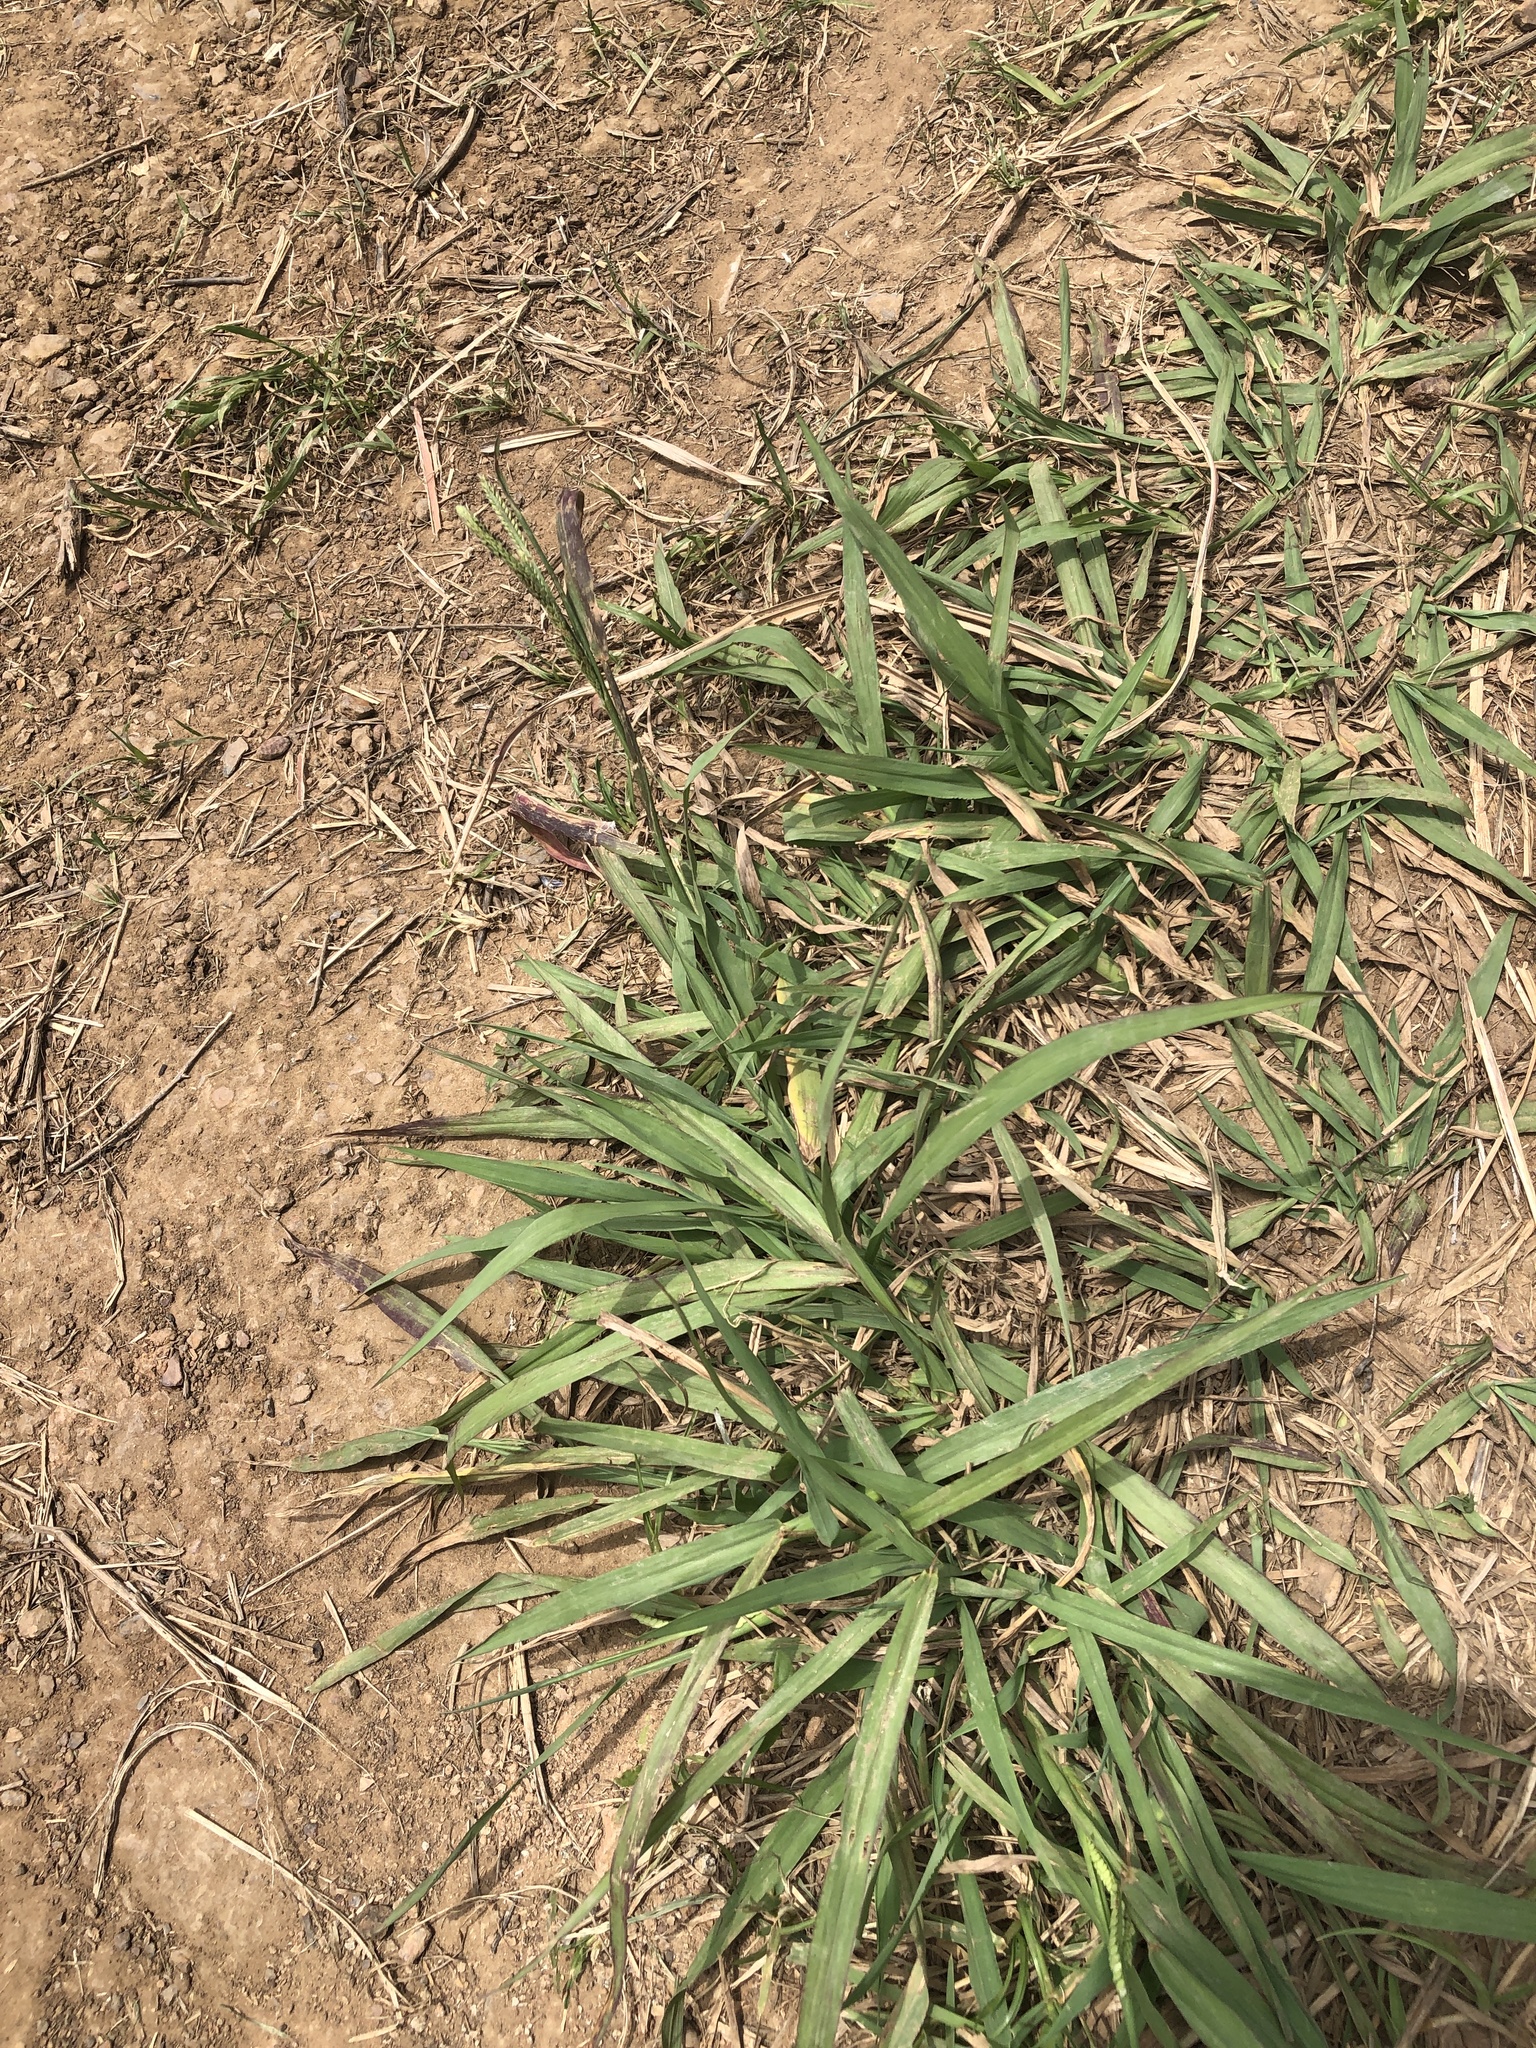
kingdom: Plantae
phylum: Tracheophyta
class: Liliopsida
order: Poales
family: Poaceae
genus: Paspalum
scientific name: Paspalum dilatatum
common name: Dallisgrass
